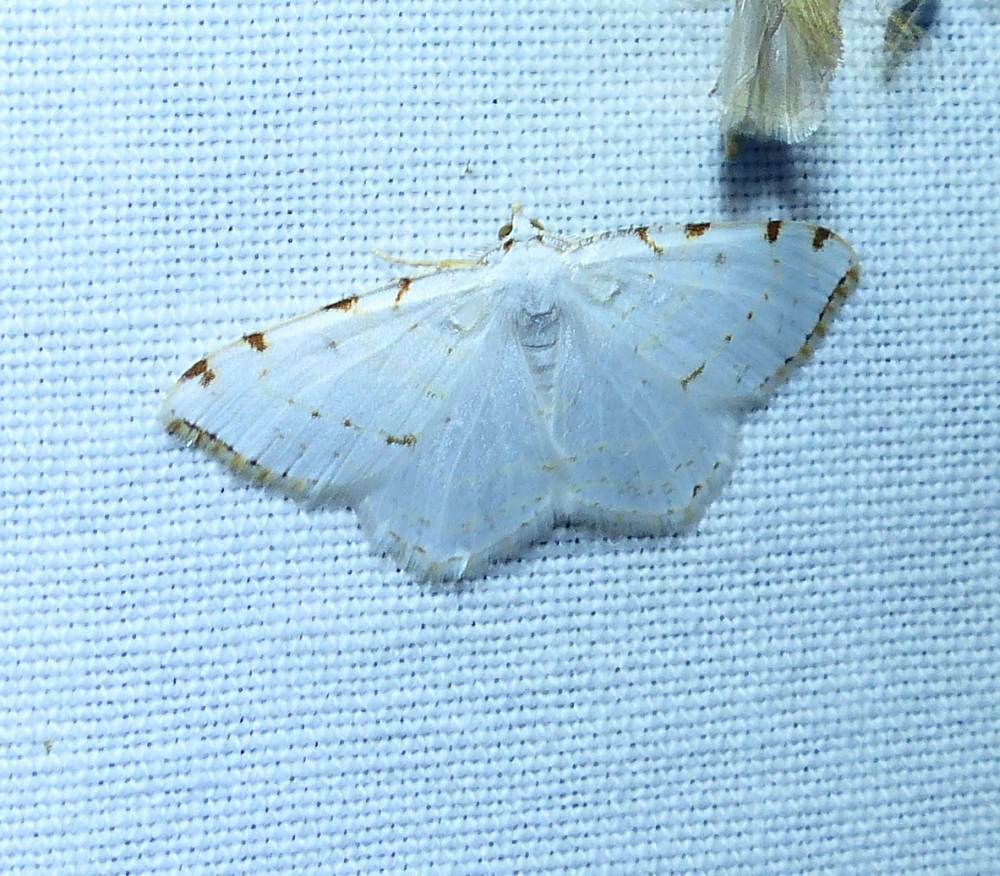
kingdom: Animalia
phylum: Arthropoda
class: Insecta
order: Lepidoptera
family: Geometridae
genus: Macaria
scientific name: Macaria pustularia
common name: Lesser maple spanworm moth
